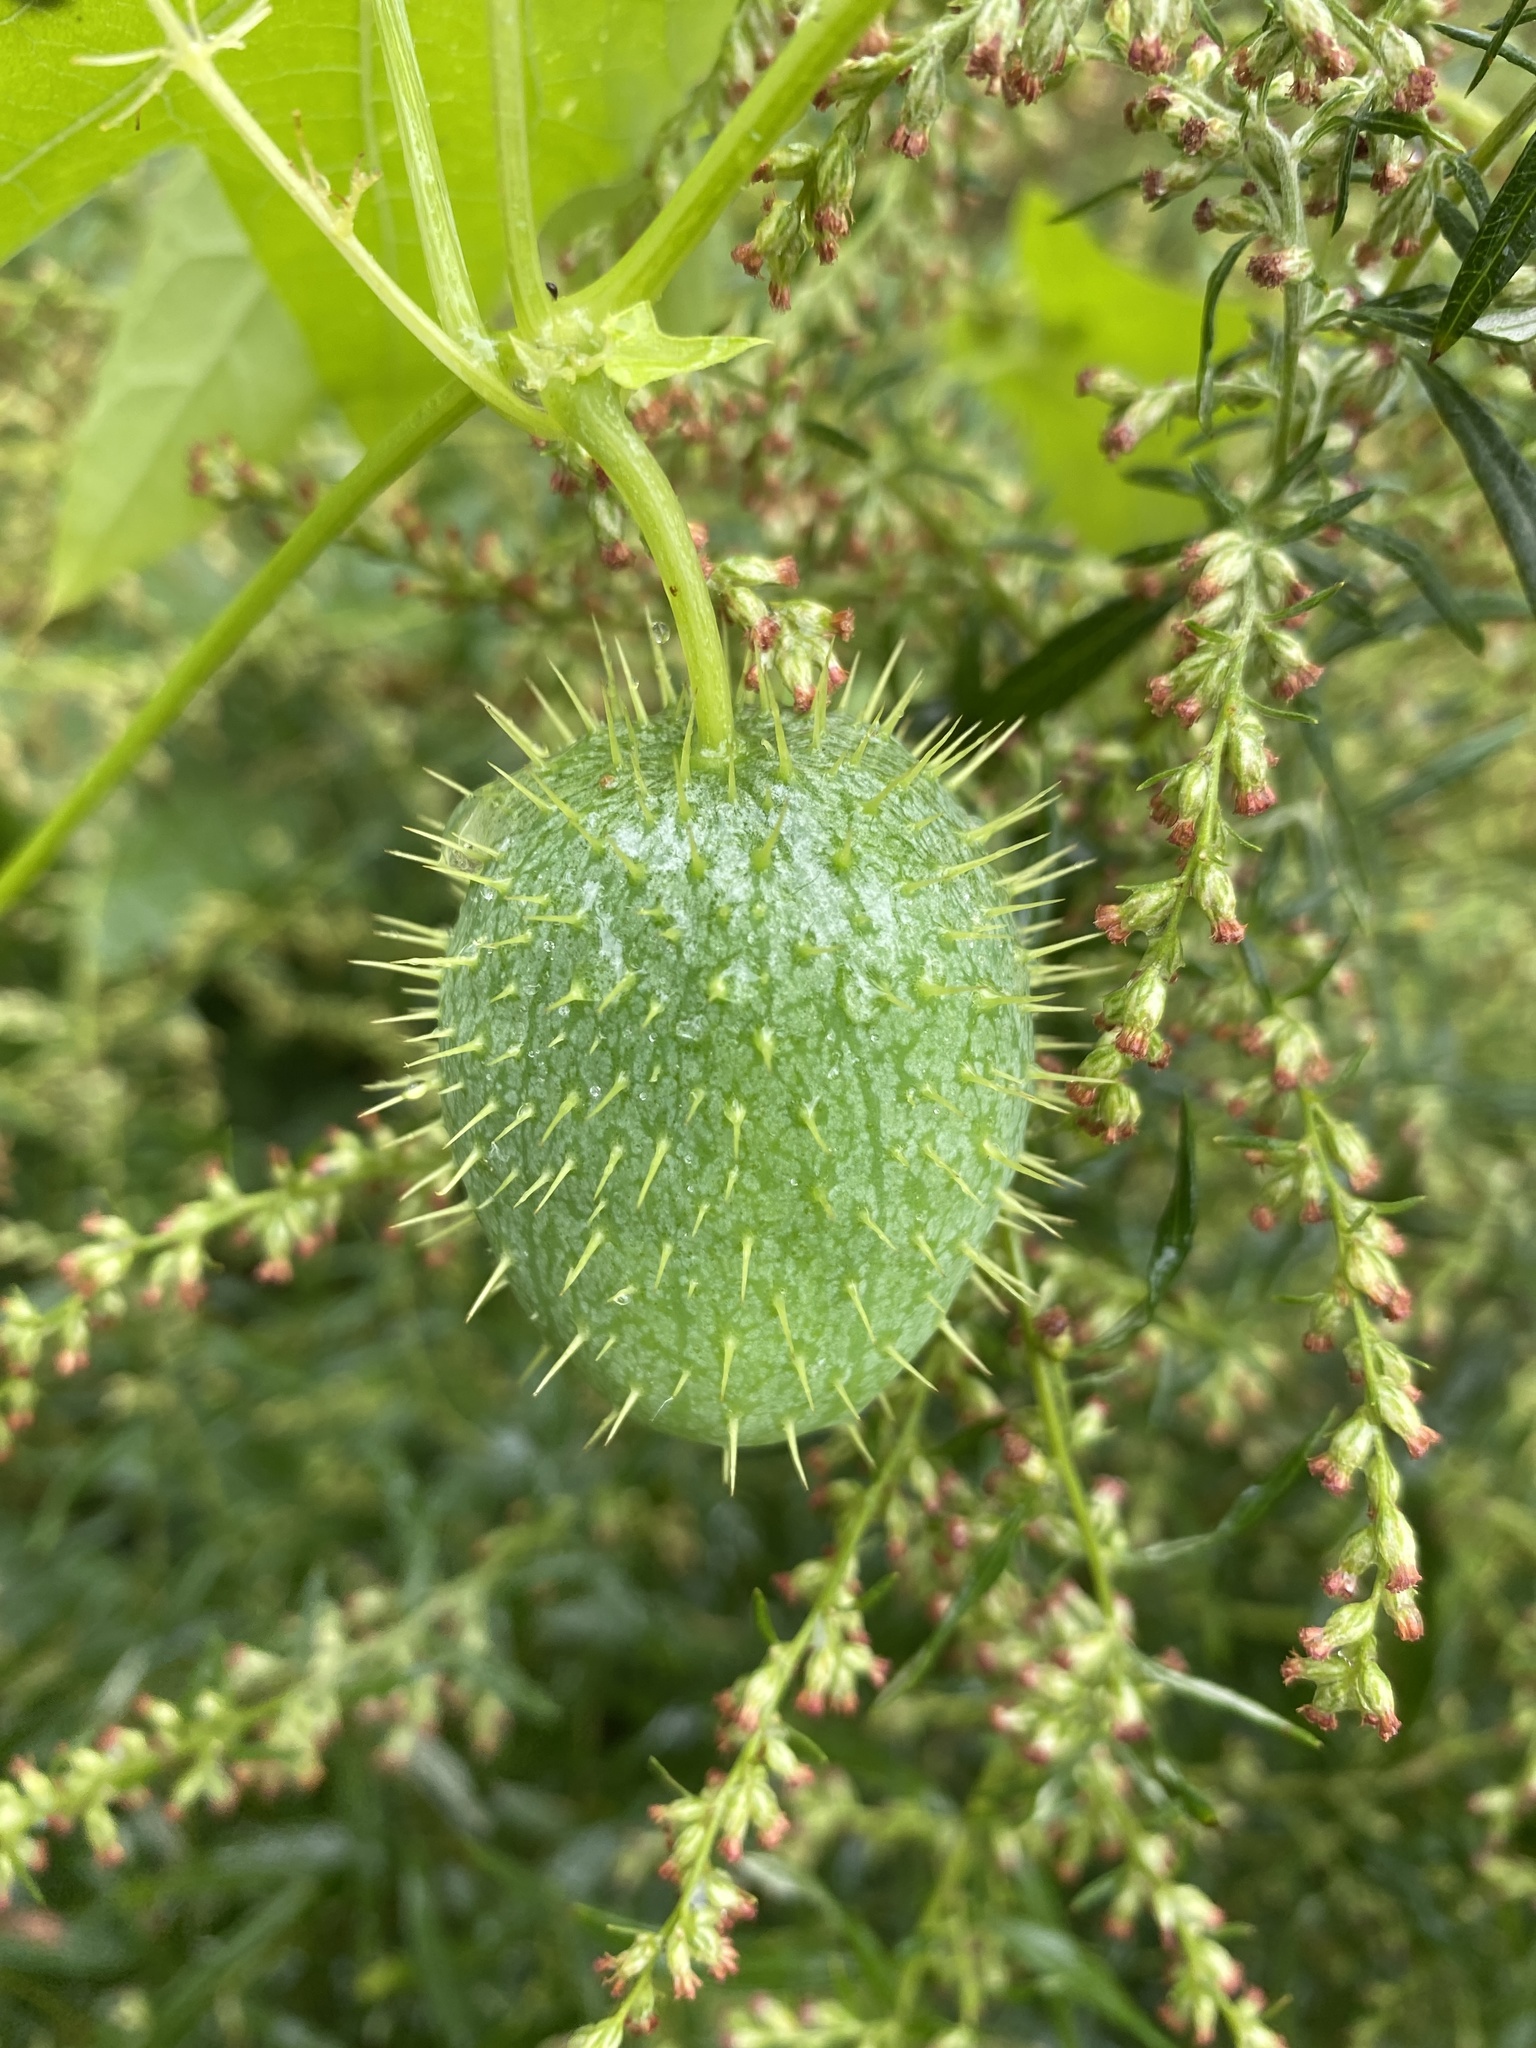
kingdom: Plantae
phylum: Tracheophyta
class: Magnoliopsida
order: Cucurbitales
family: Cucurbitaceae
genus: Echinocystis
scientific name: Echinocystis lobata
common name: Wild cucumber
